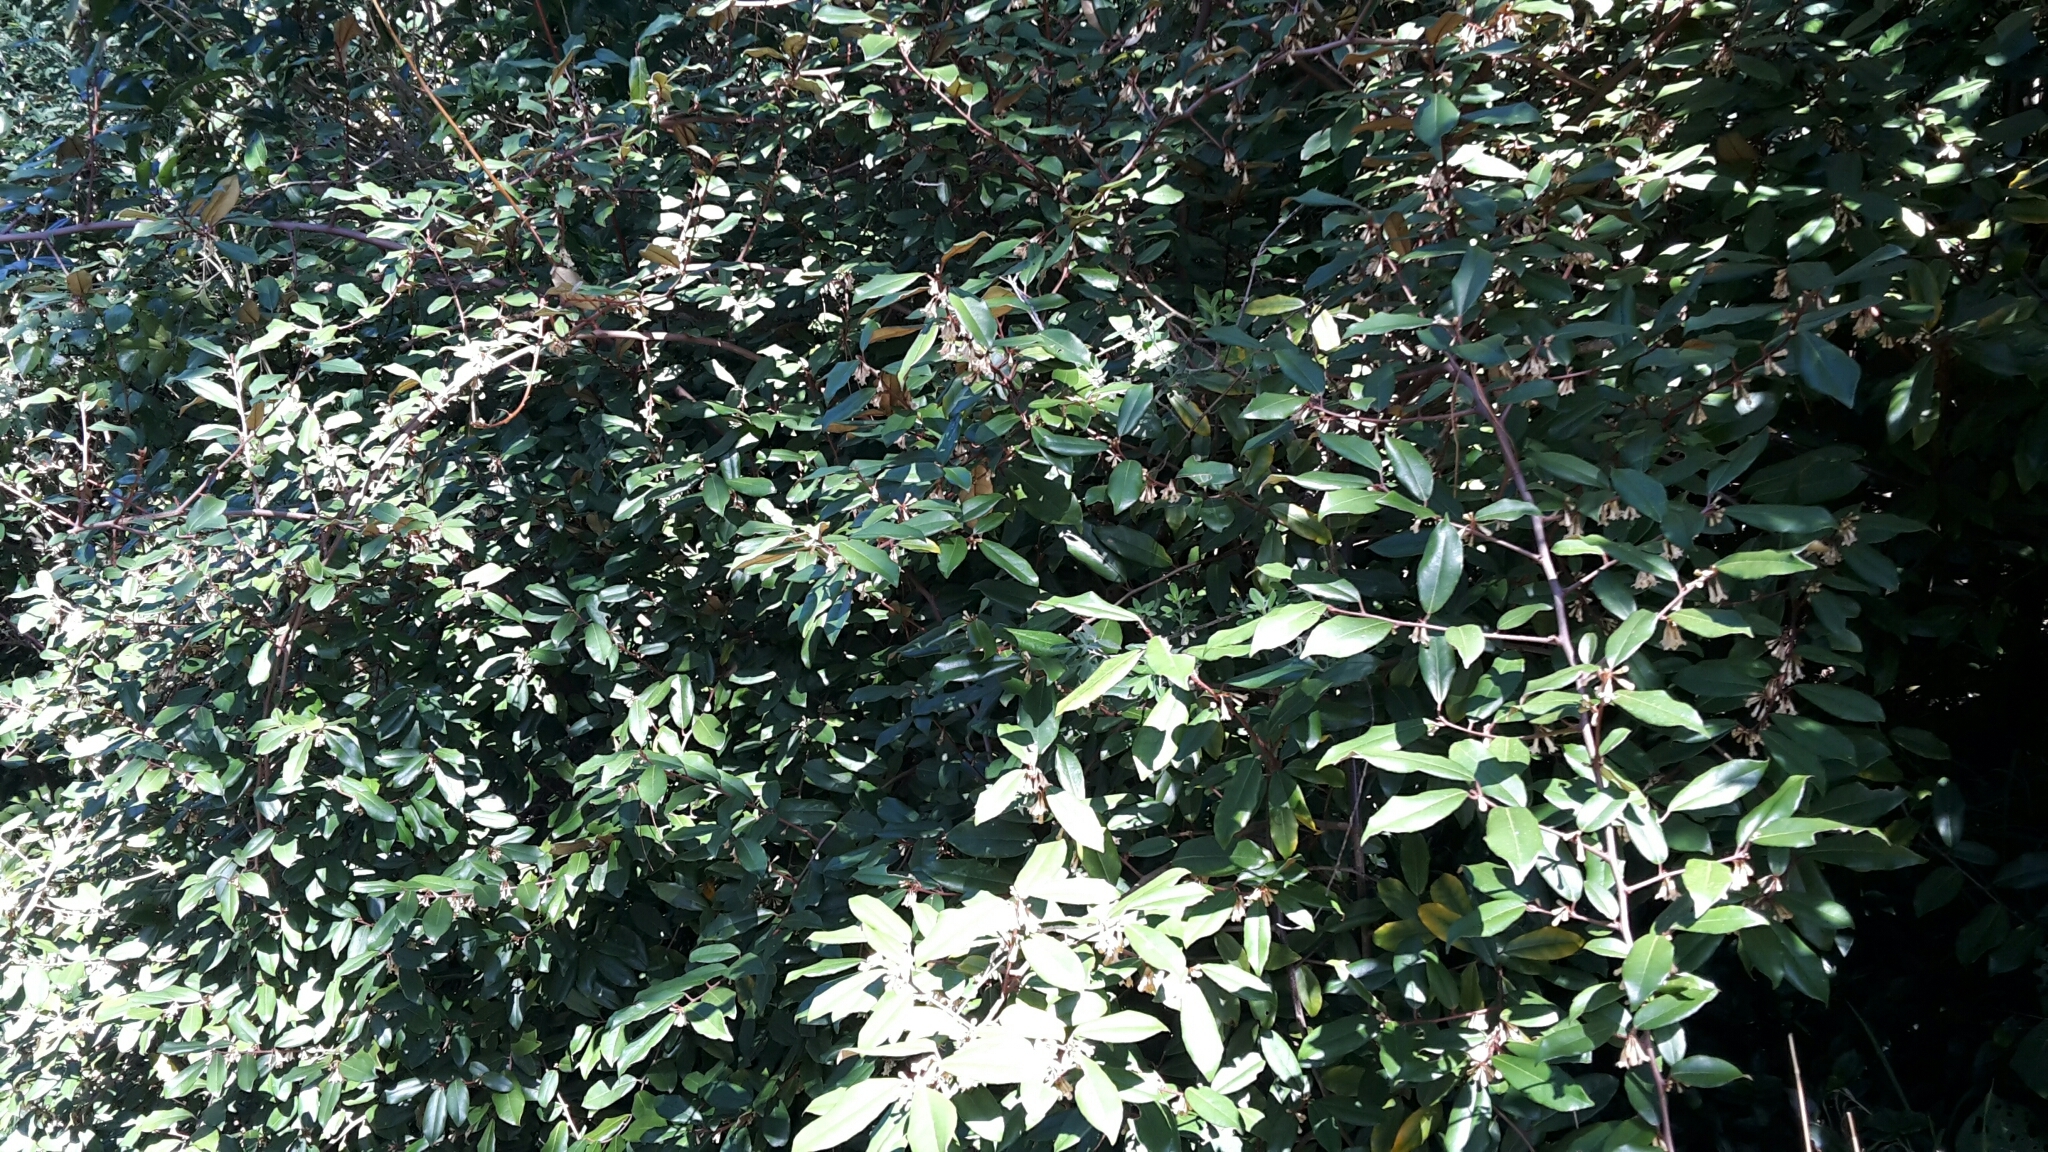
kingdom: Plantae
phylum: Tracheophyta
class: Magnoliopsida
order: Rosales
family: Elaeagnaceae
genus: Elaeagnus
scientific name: Elaeagnus reflexa
